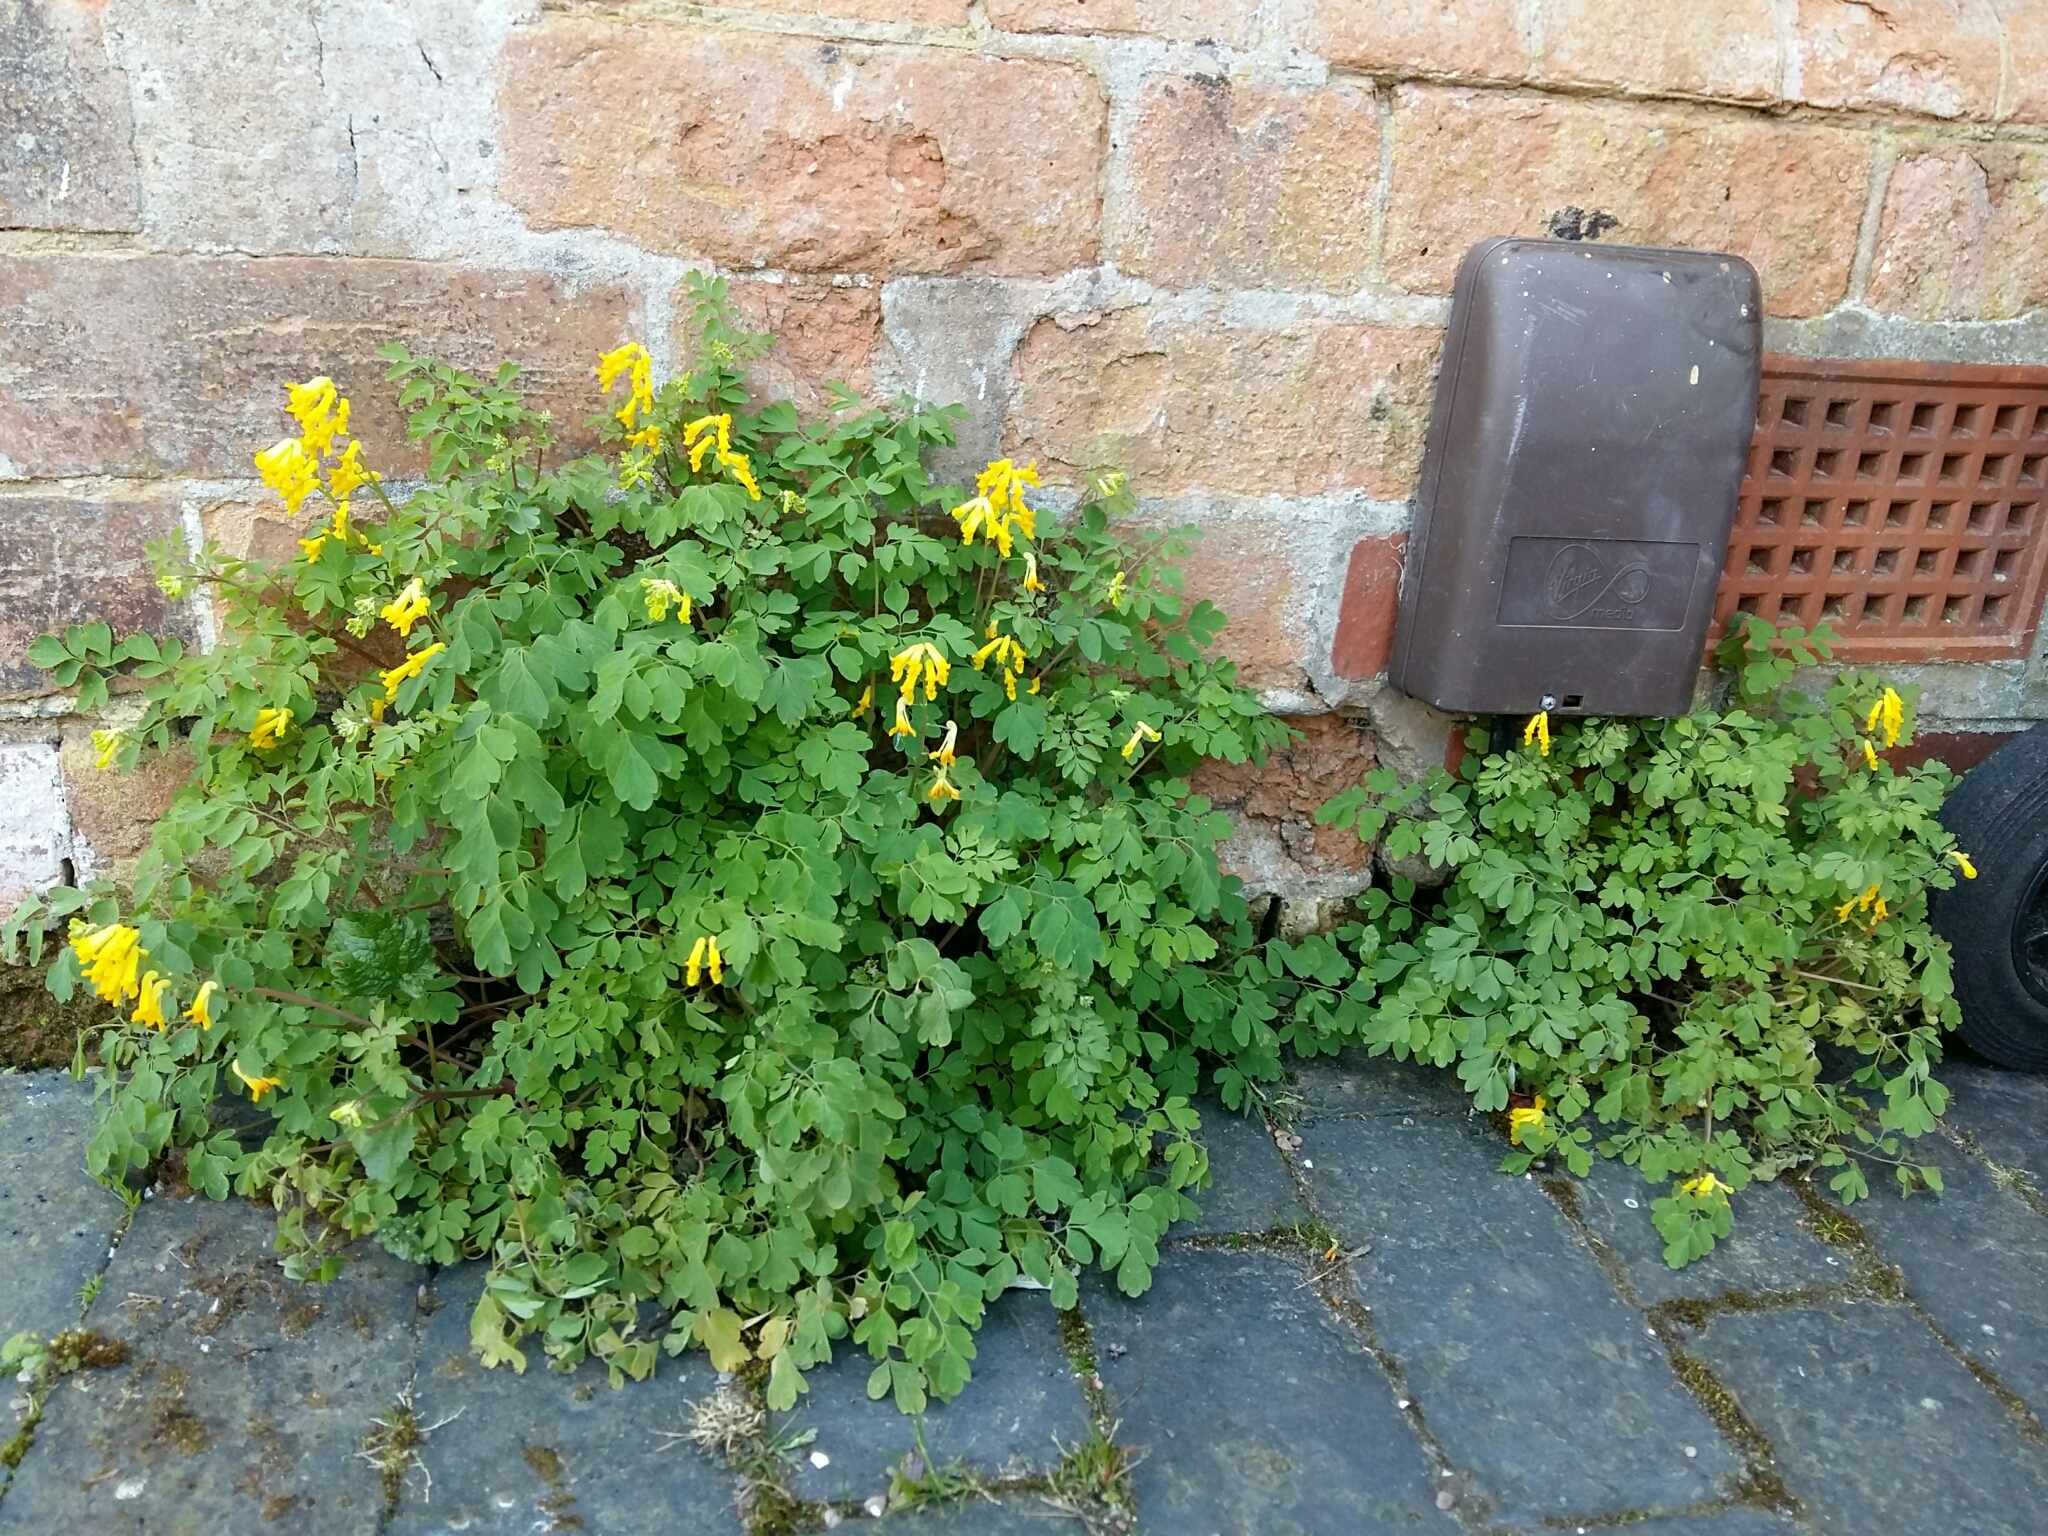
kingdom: Plantae
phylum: Tracheophyta
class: Magnoliopsida
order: Ranunculales
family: Papaveraceae
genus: Pseudofumaria
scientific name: Pseudofumaria lutea
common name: Yellow corydalis
